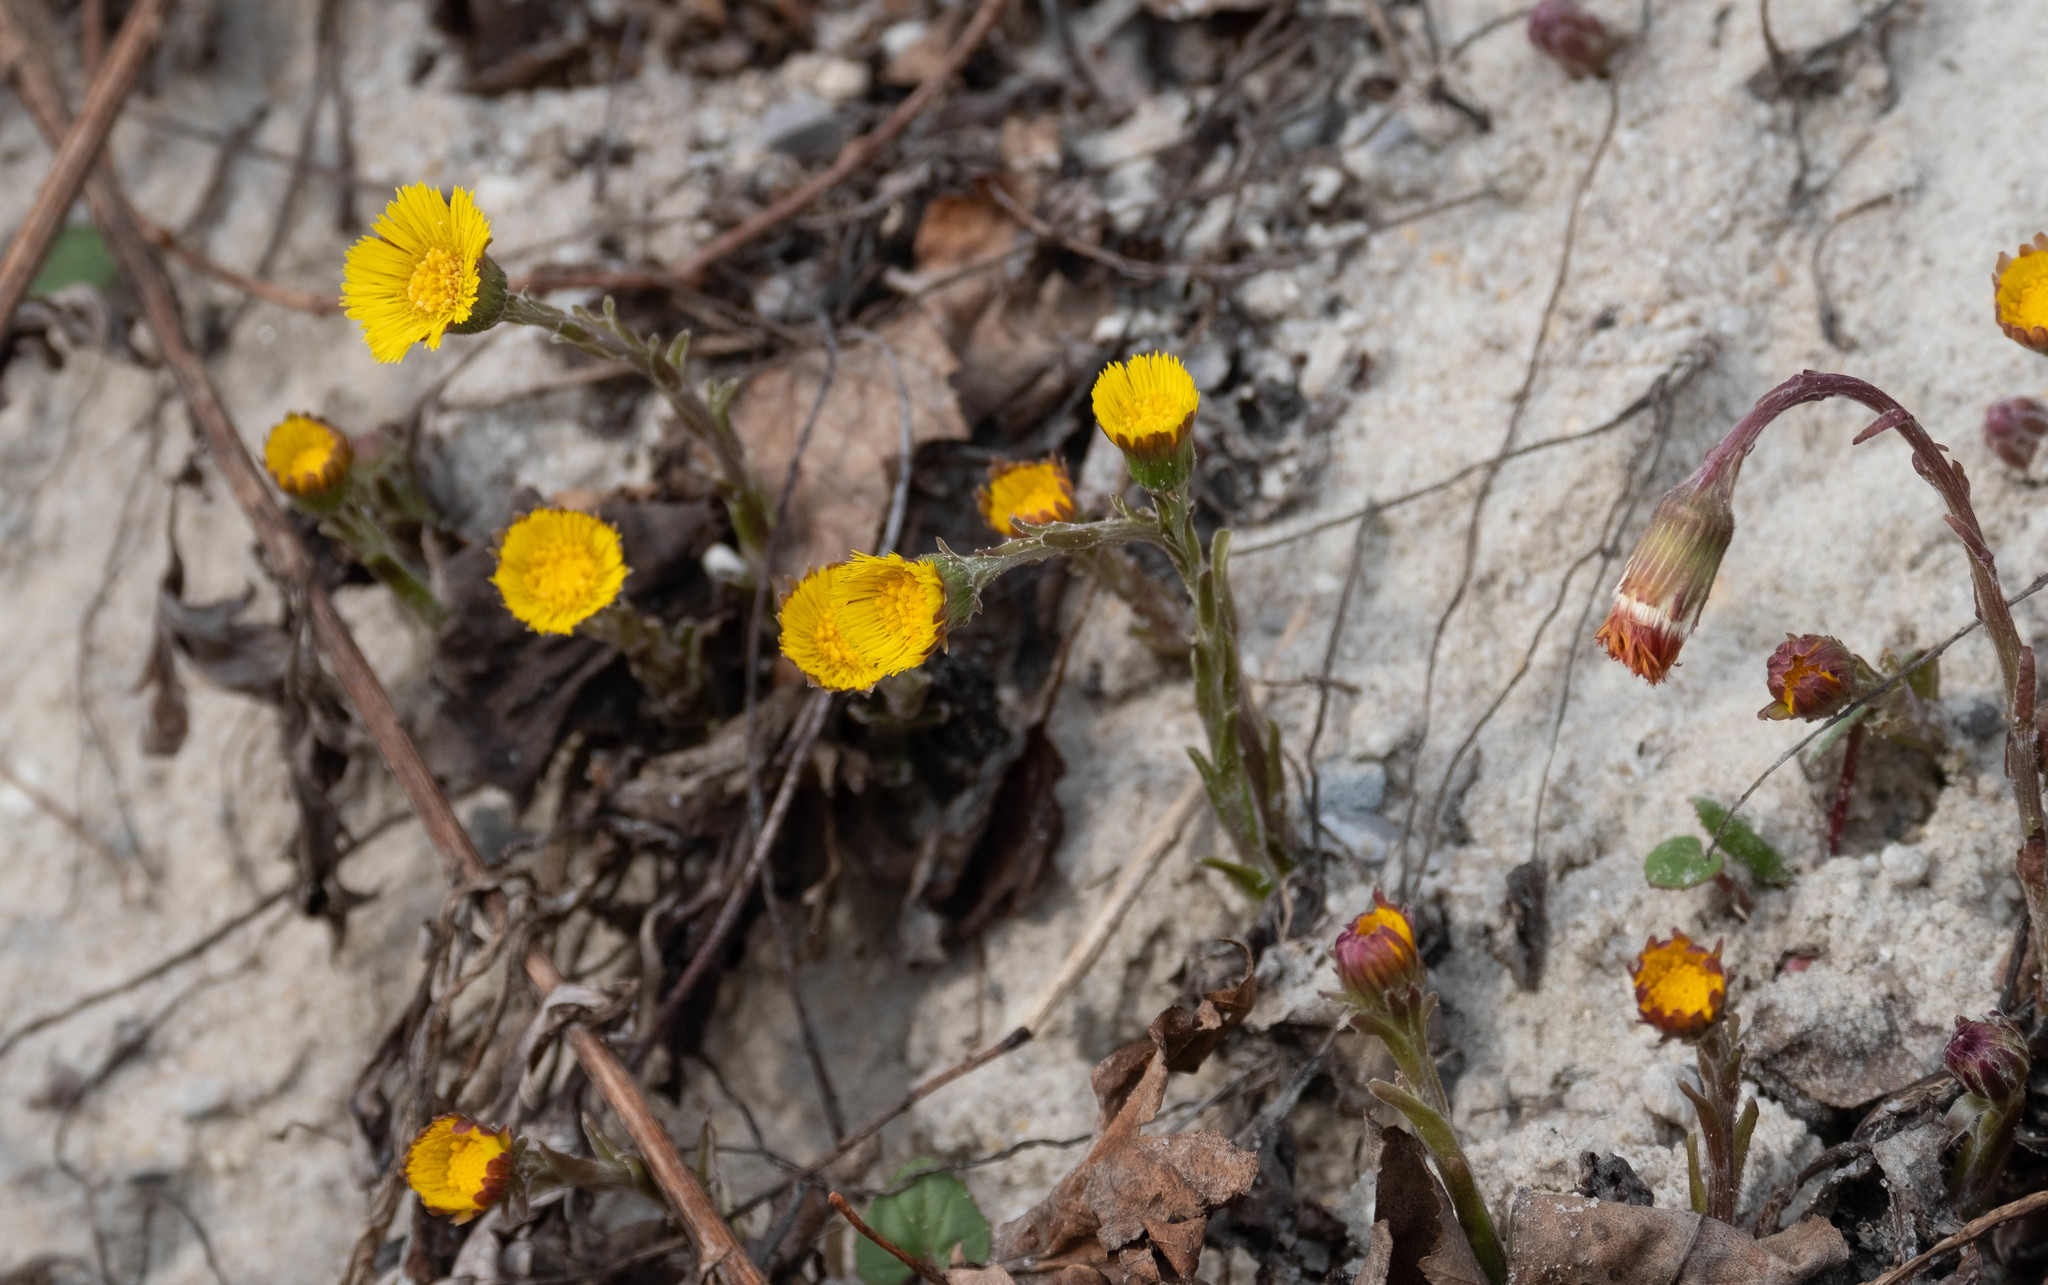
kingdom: Plantae
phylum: Tracheophyta
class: Magnoliopsida
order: Asterales
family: Asteraceae
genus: Tussilago
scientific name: Tussilago farfara
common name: Coltsfoot
